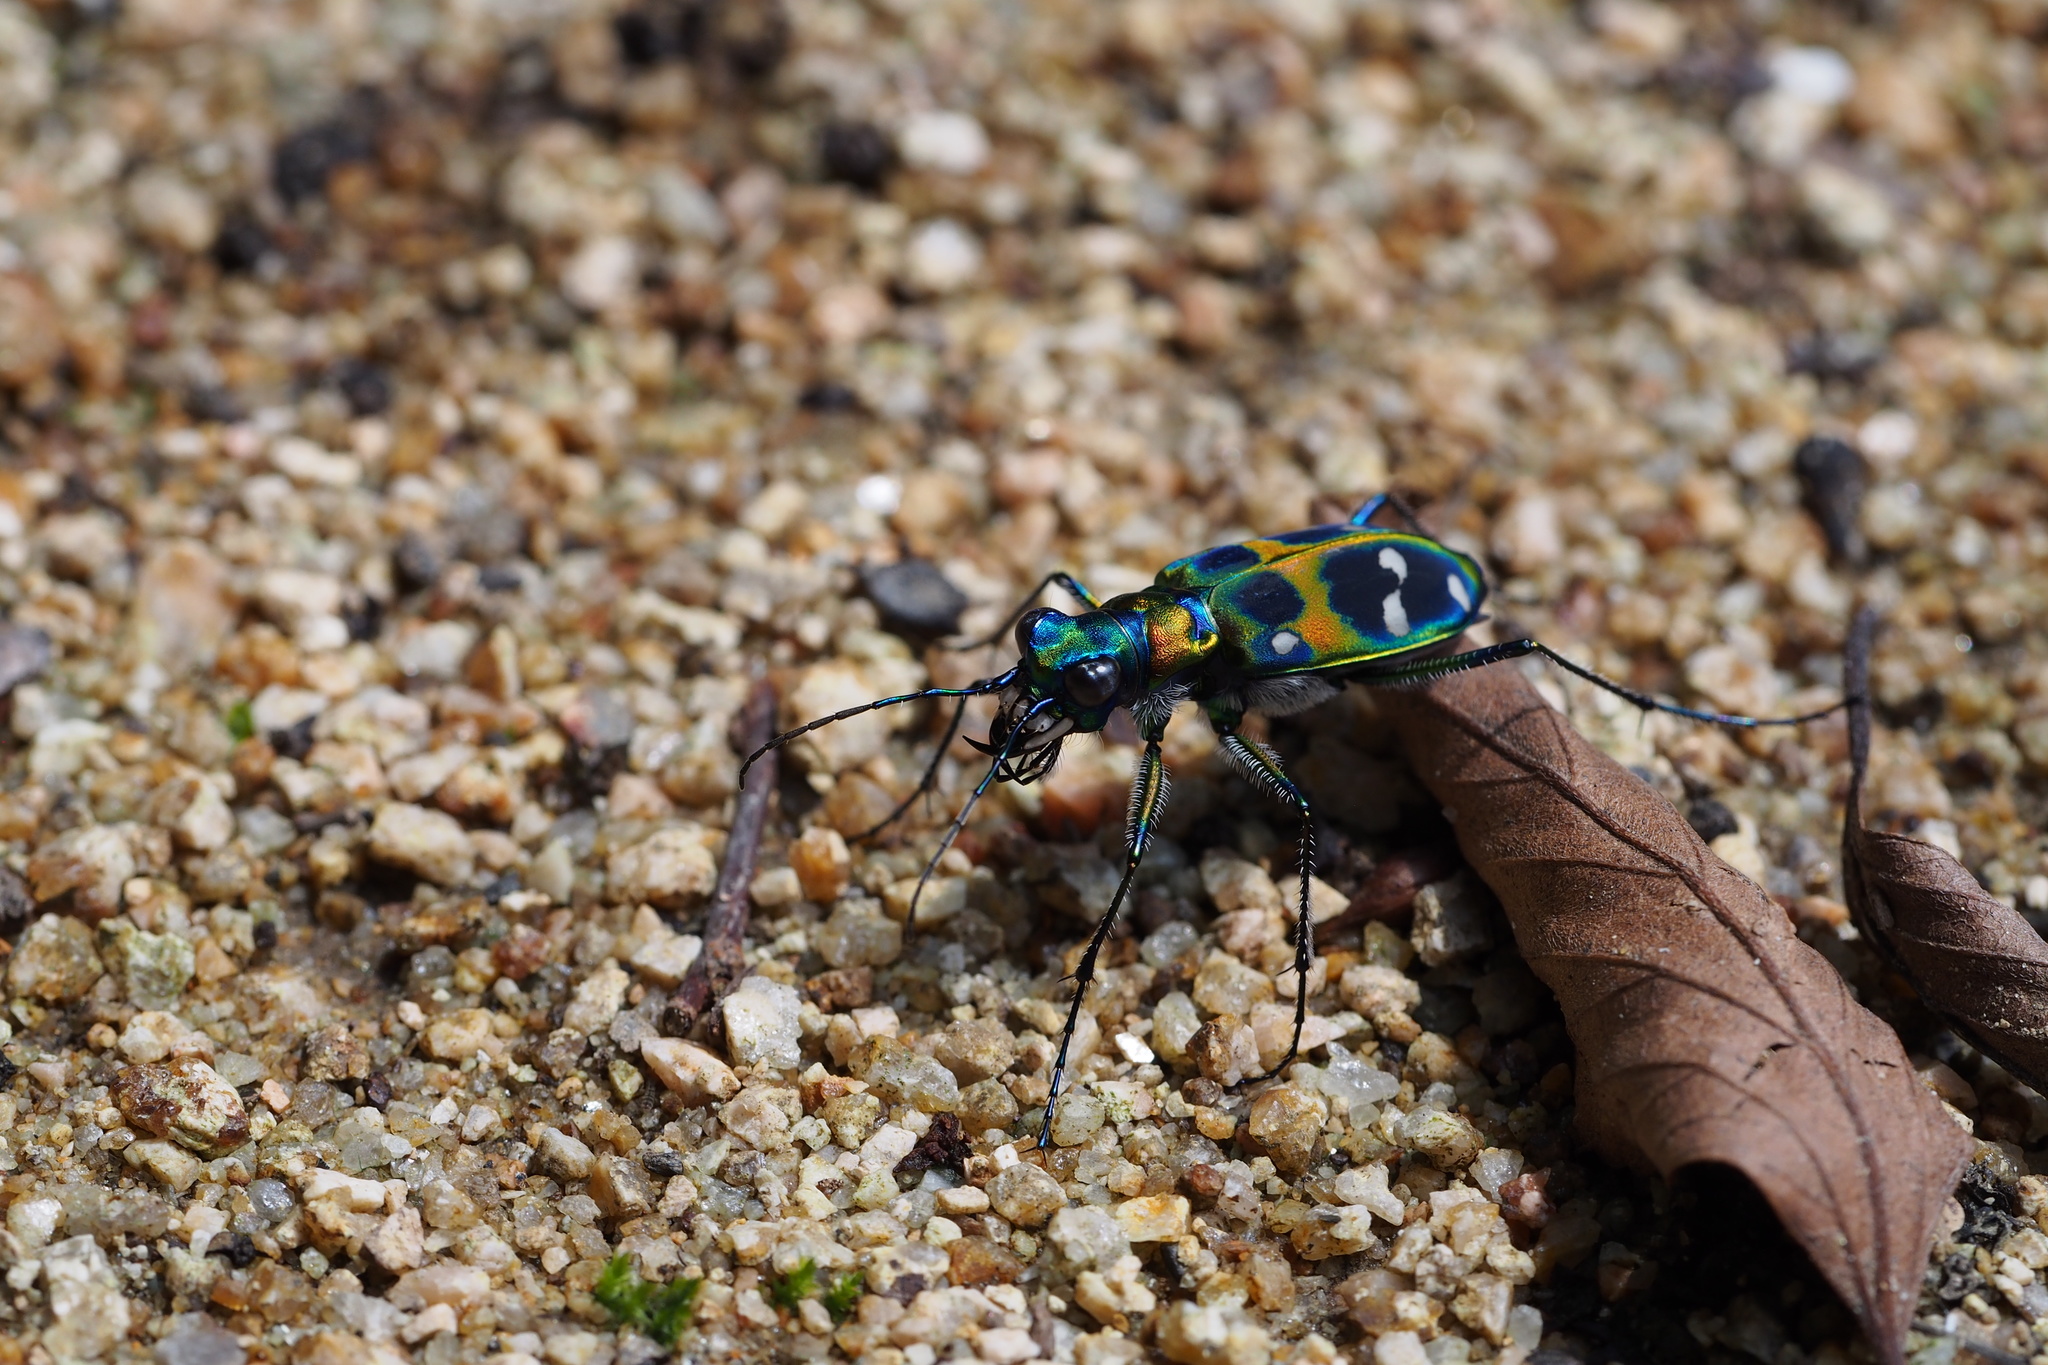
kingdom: Animalia
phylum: Arthropoda
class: Insecta
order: Coleoptera
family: Carabidae
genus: Cicindela
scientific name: Cicindela chinensis
